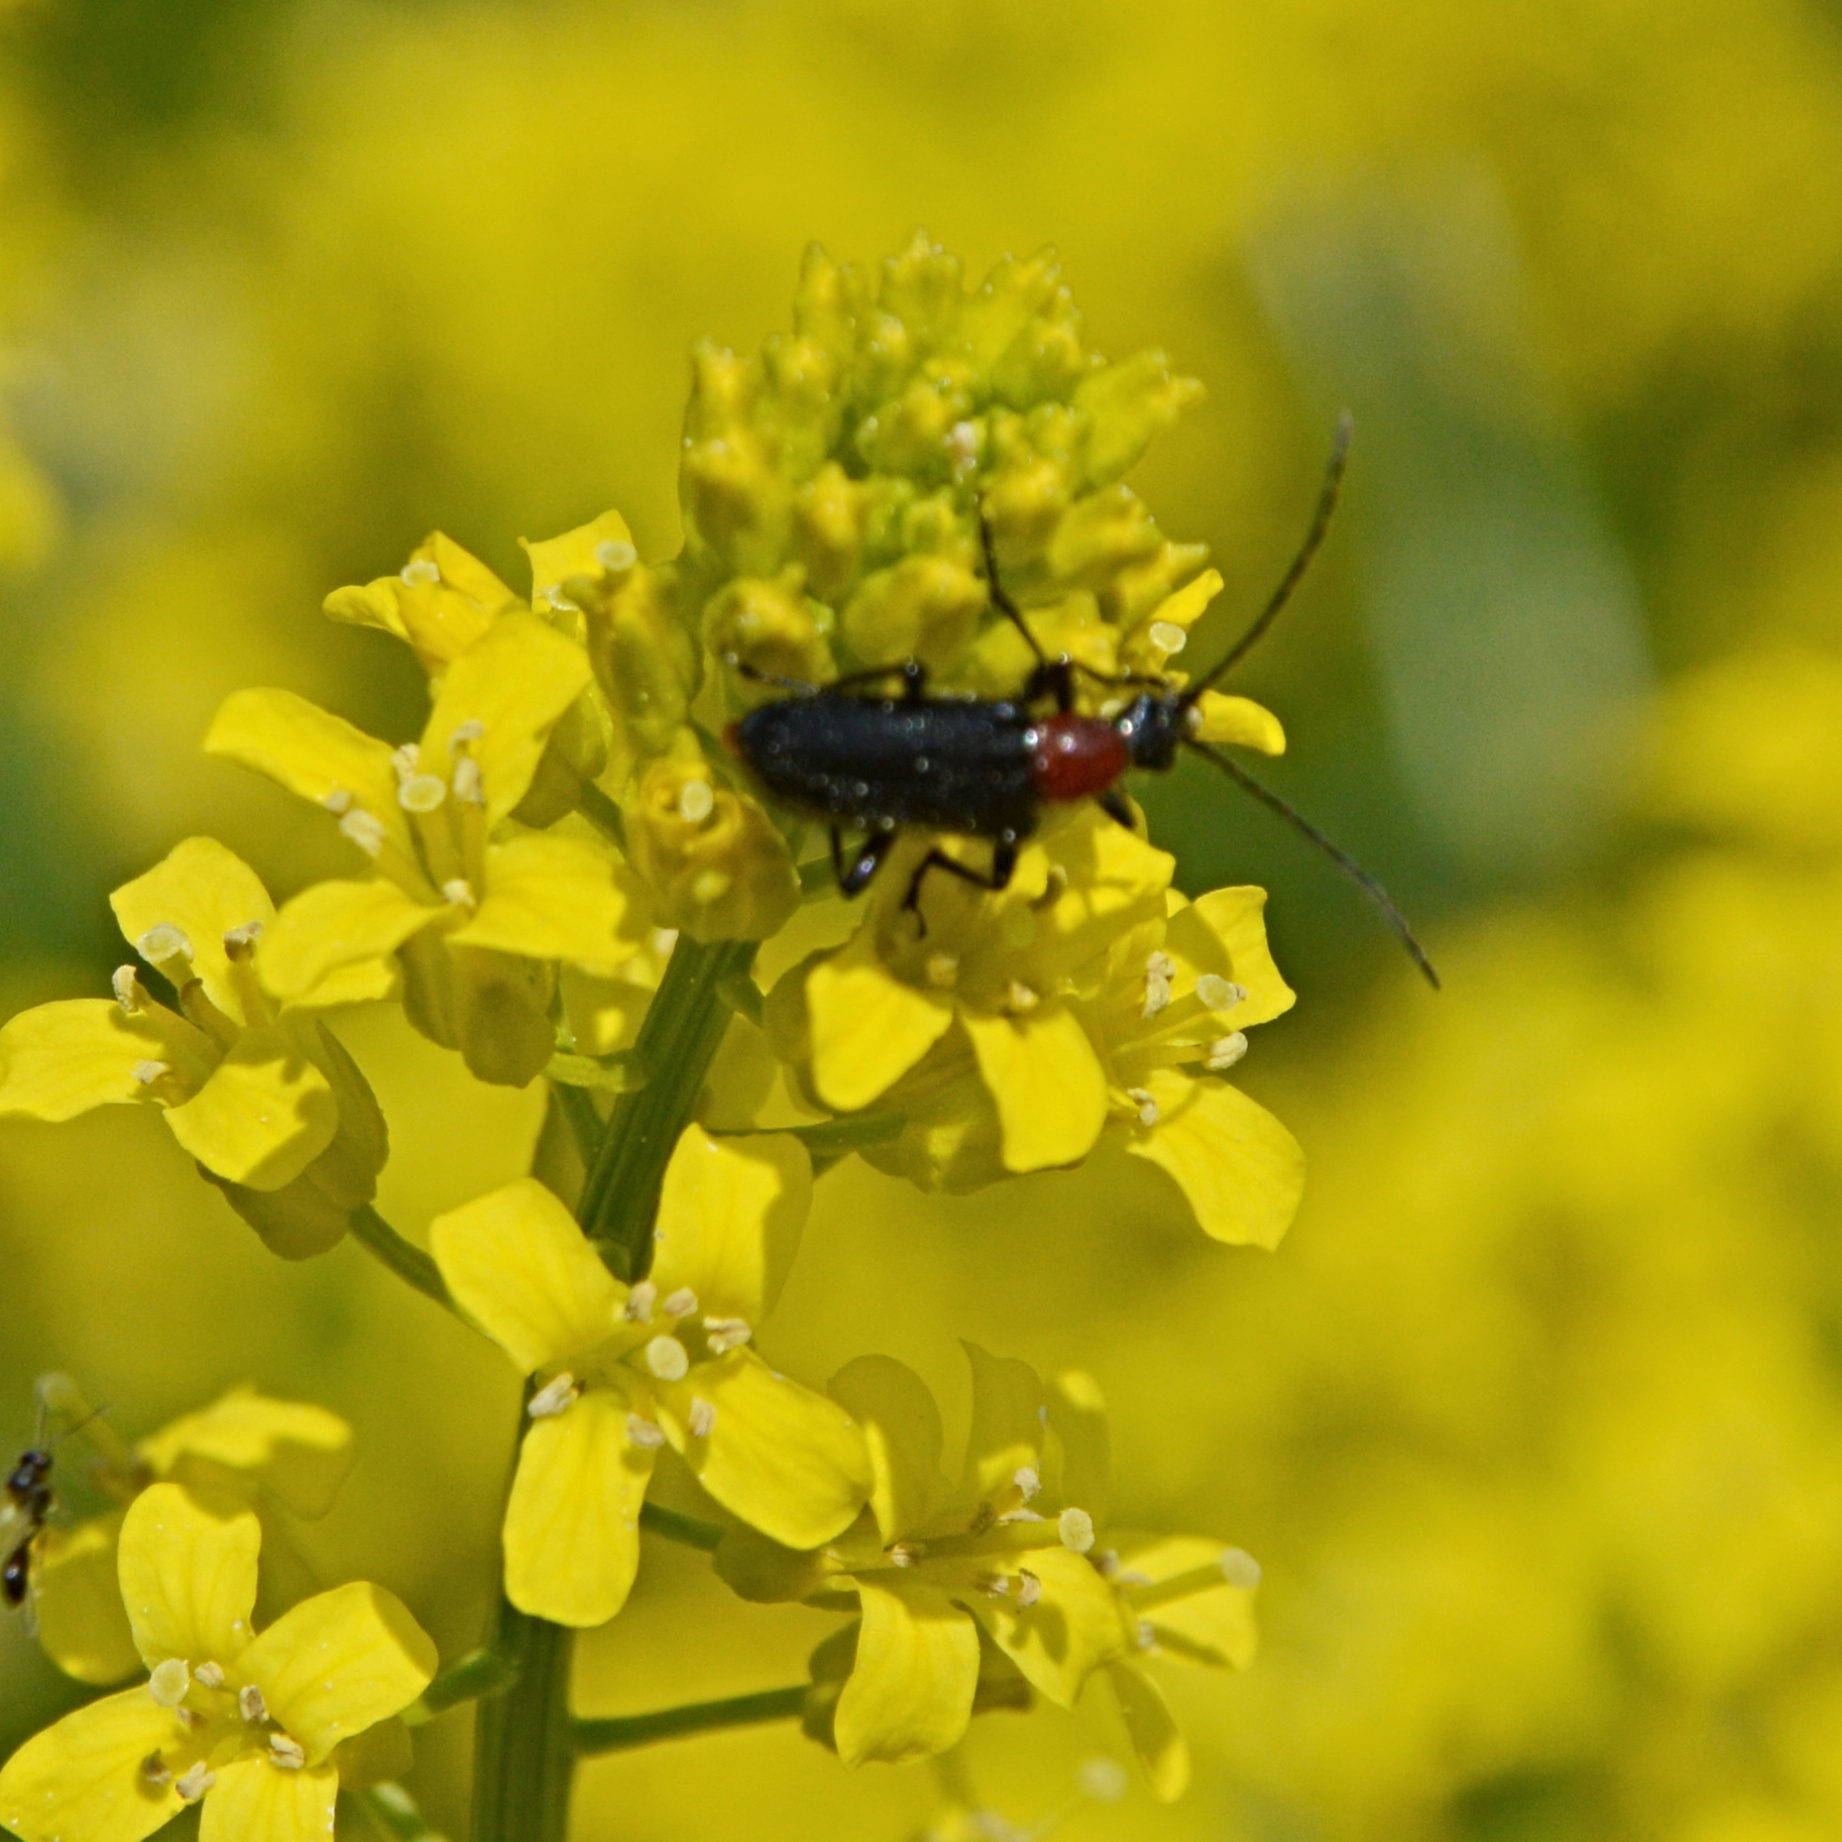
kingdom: Animalia
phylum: Arthropoda
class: Insecta
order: Coleoptera
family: Cerambycidae
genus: Dinoptera
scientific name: Dinoptera collaris
